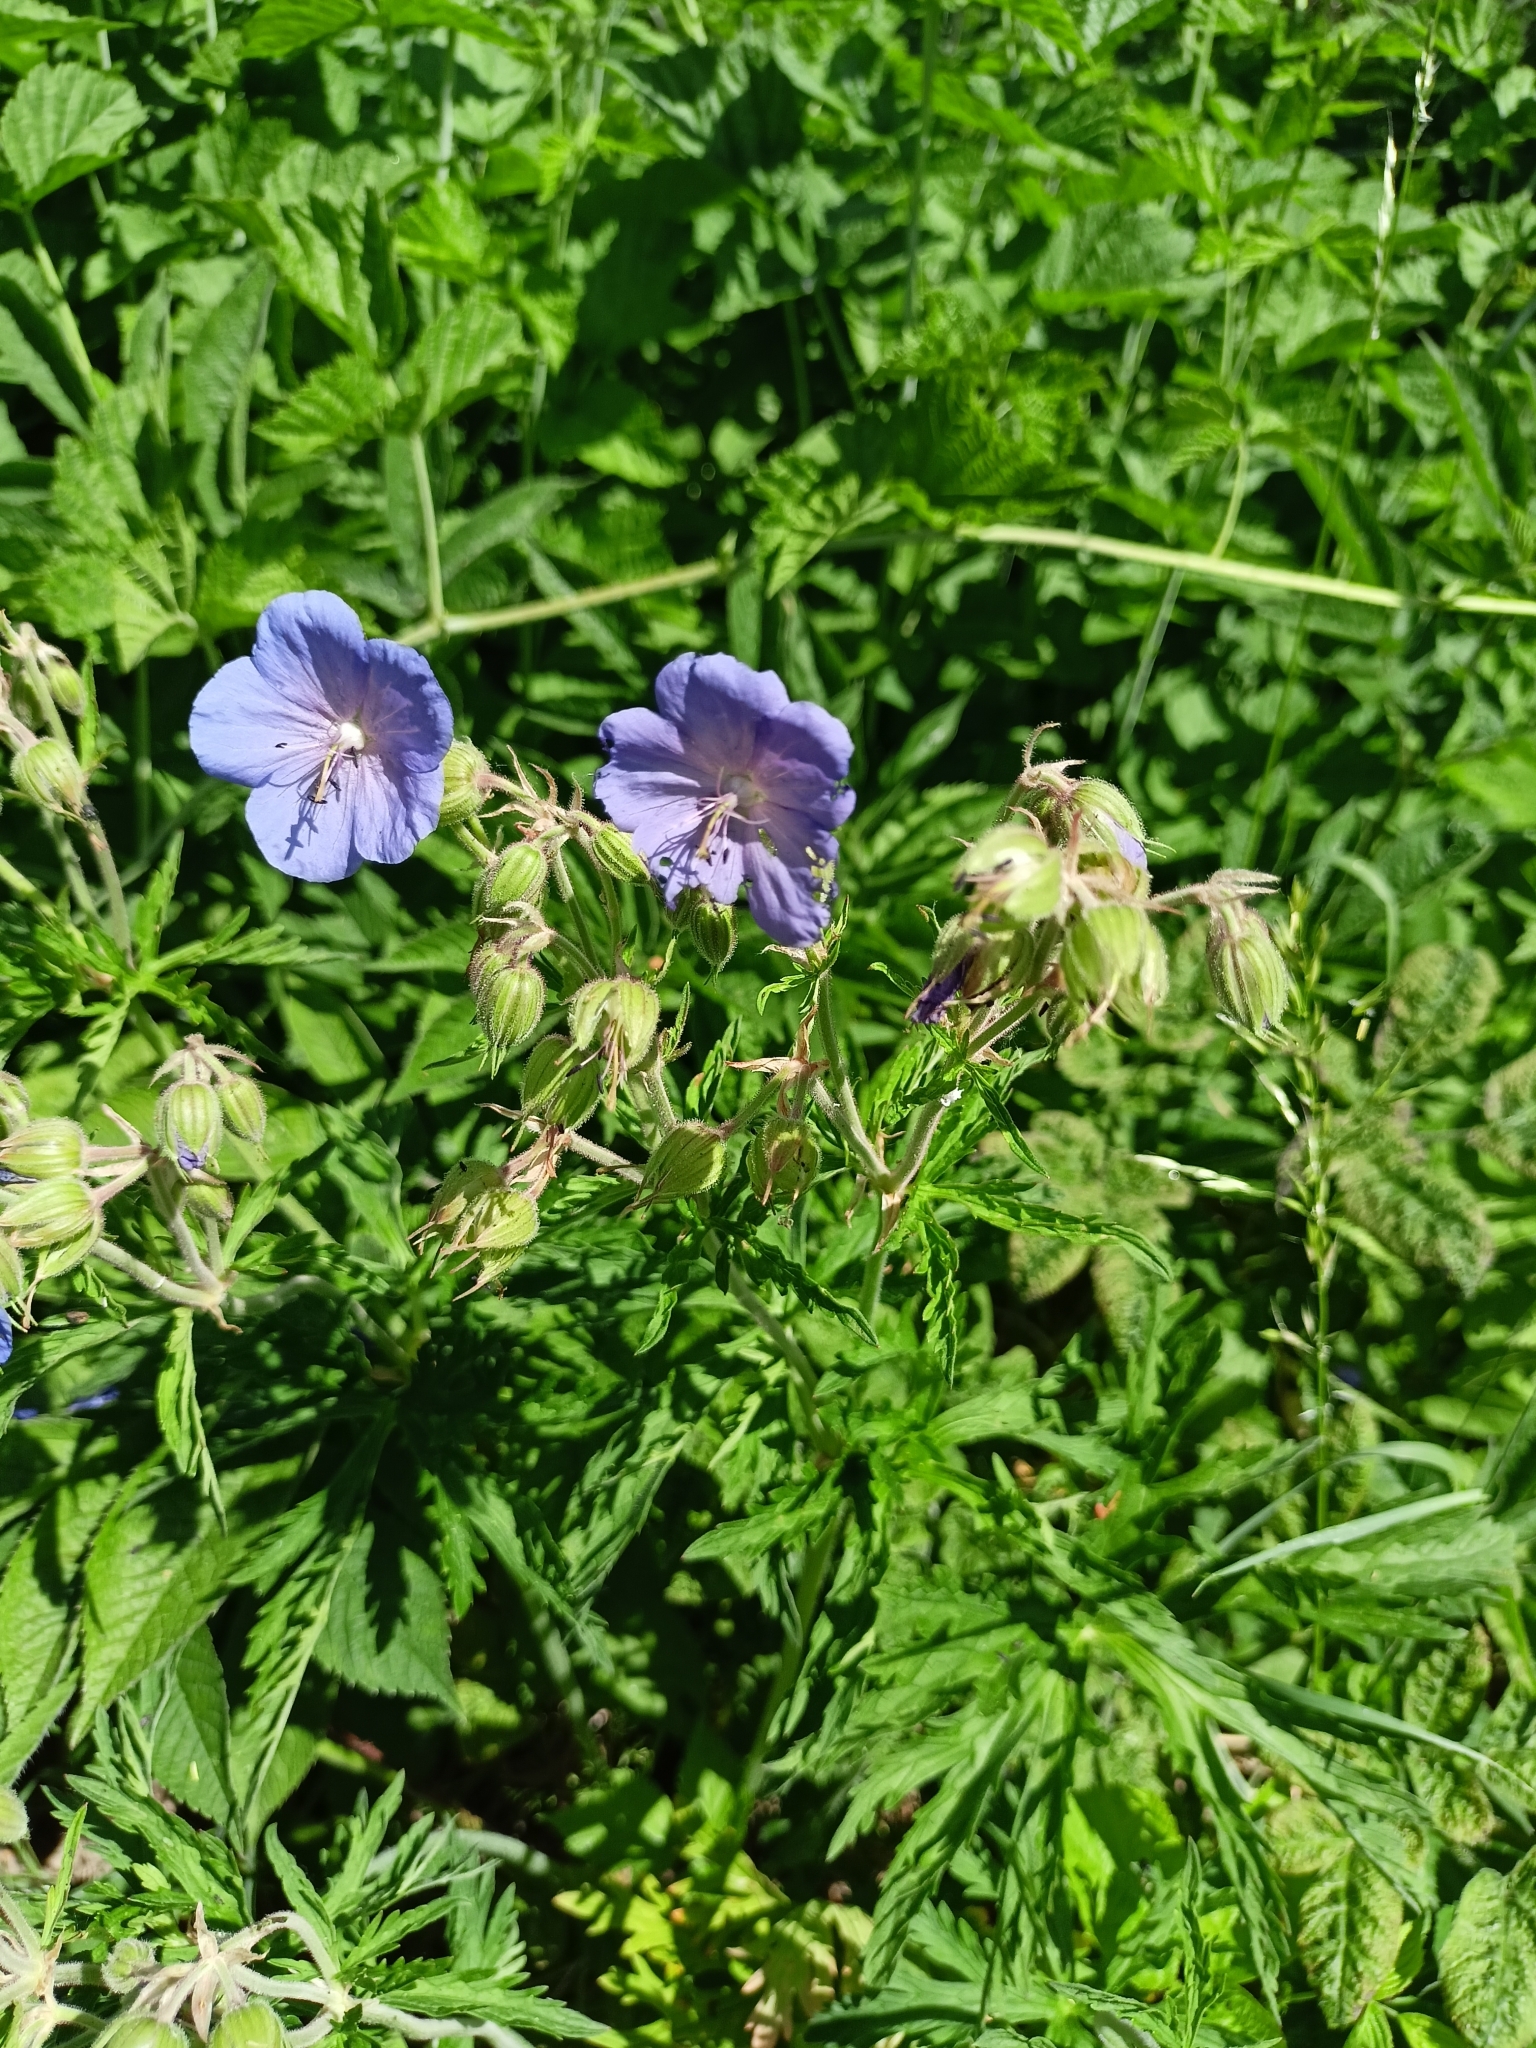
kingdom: Plantae
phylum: Tracheophyta
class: Magnoliopsida
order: Geraniales
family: Geraniaceae
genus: Geranium
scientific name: Geranium pratense
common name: Meadow crane's-bill
